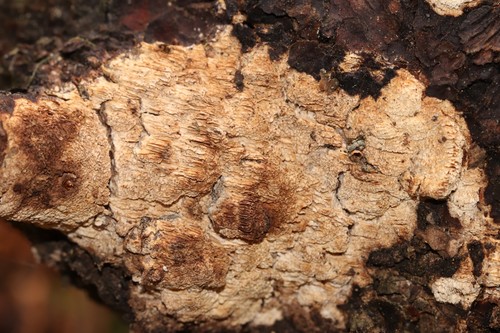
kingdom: Fungi
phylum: Basidiomycota
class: Agaricomycetes
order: Polyporales
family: Fomitopsidaceae
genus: Antrodia
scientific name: Antrodia
